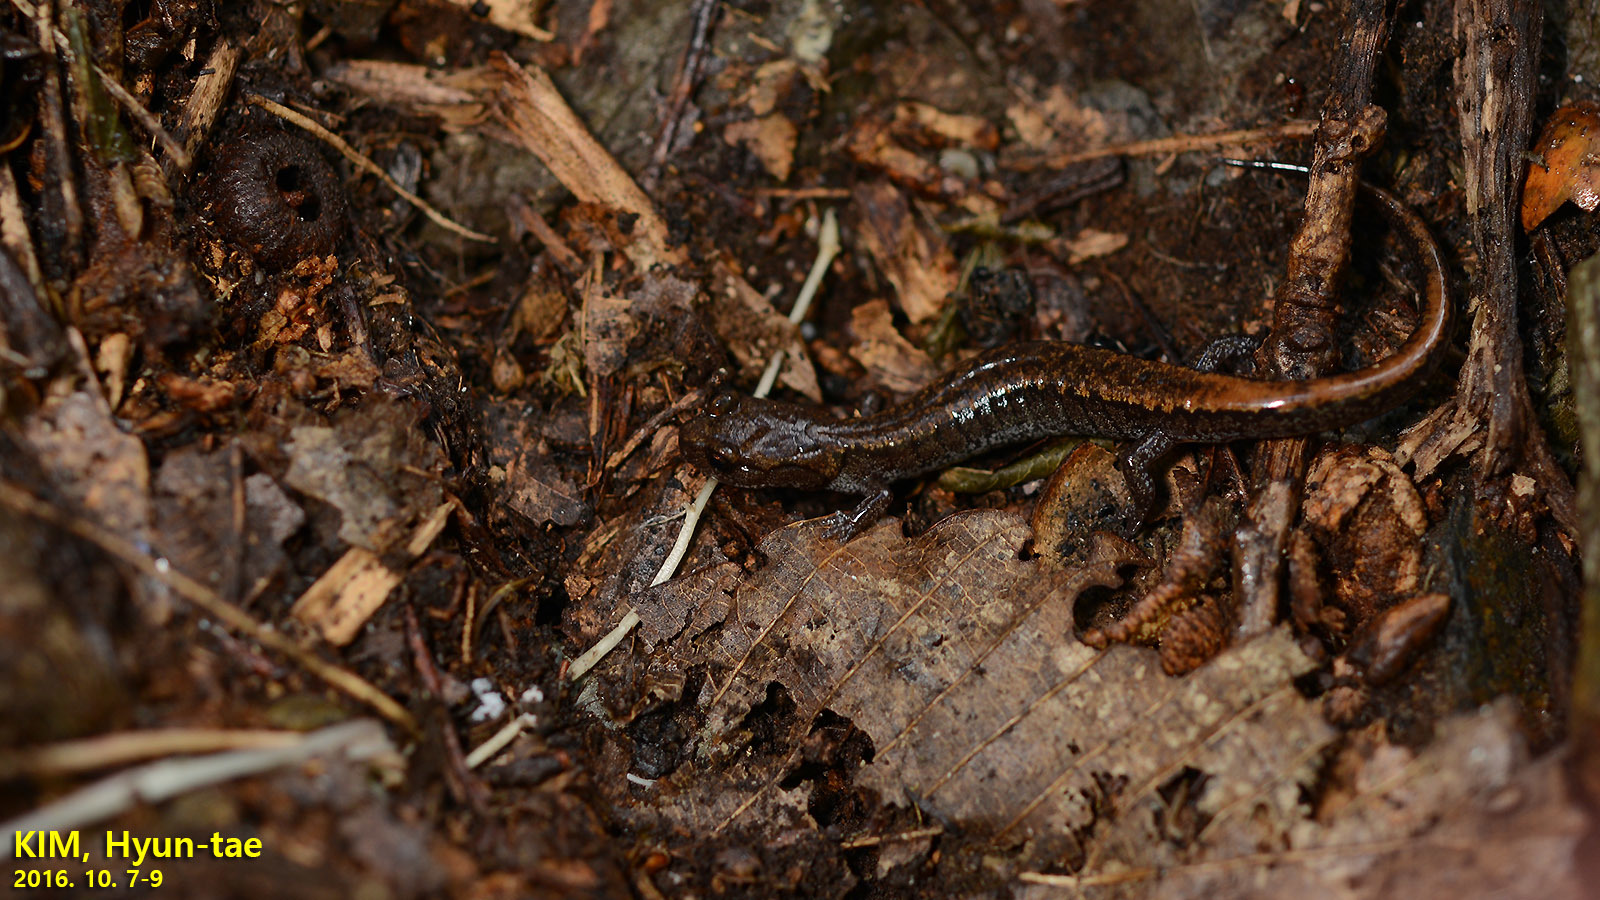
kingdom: Animalia
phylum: Chordata
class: Amphibia
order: Caudata
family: Plethodontidae
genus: Karsenia
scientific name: Karsenia koreana
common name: Korean crevice salamander
